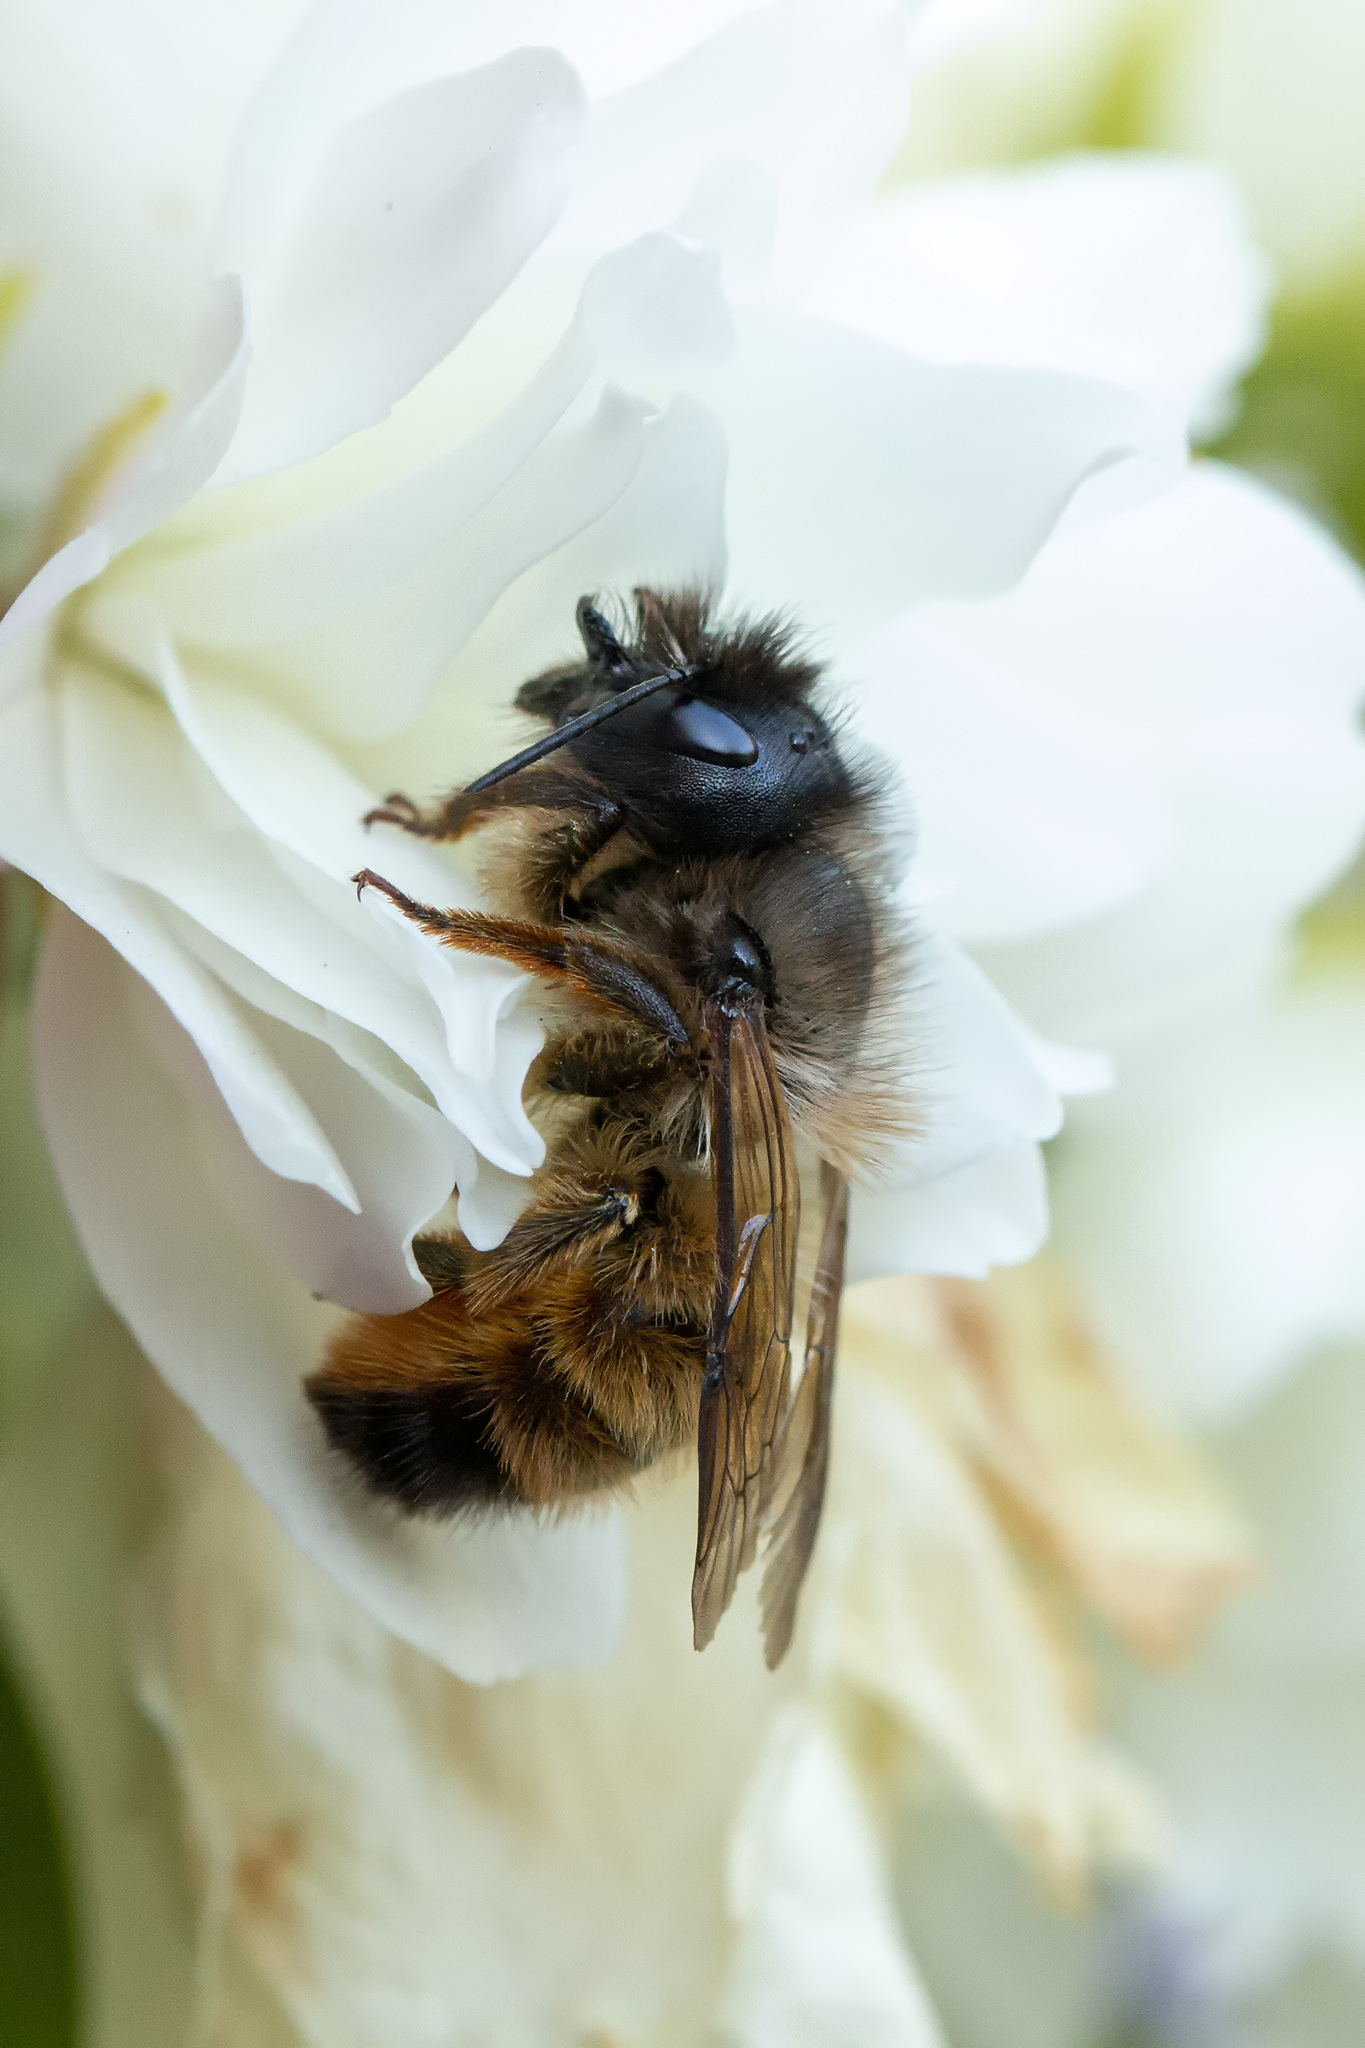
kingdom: Animalia
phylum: Arthropoda
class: Insecta
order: Hymenoptera
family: Megachilidae
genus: Osmia
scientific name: Osmia bicornis
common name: Red mason bee
